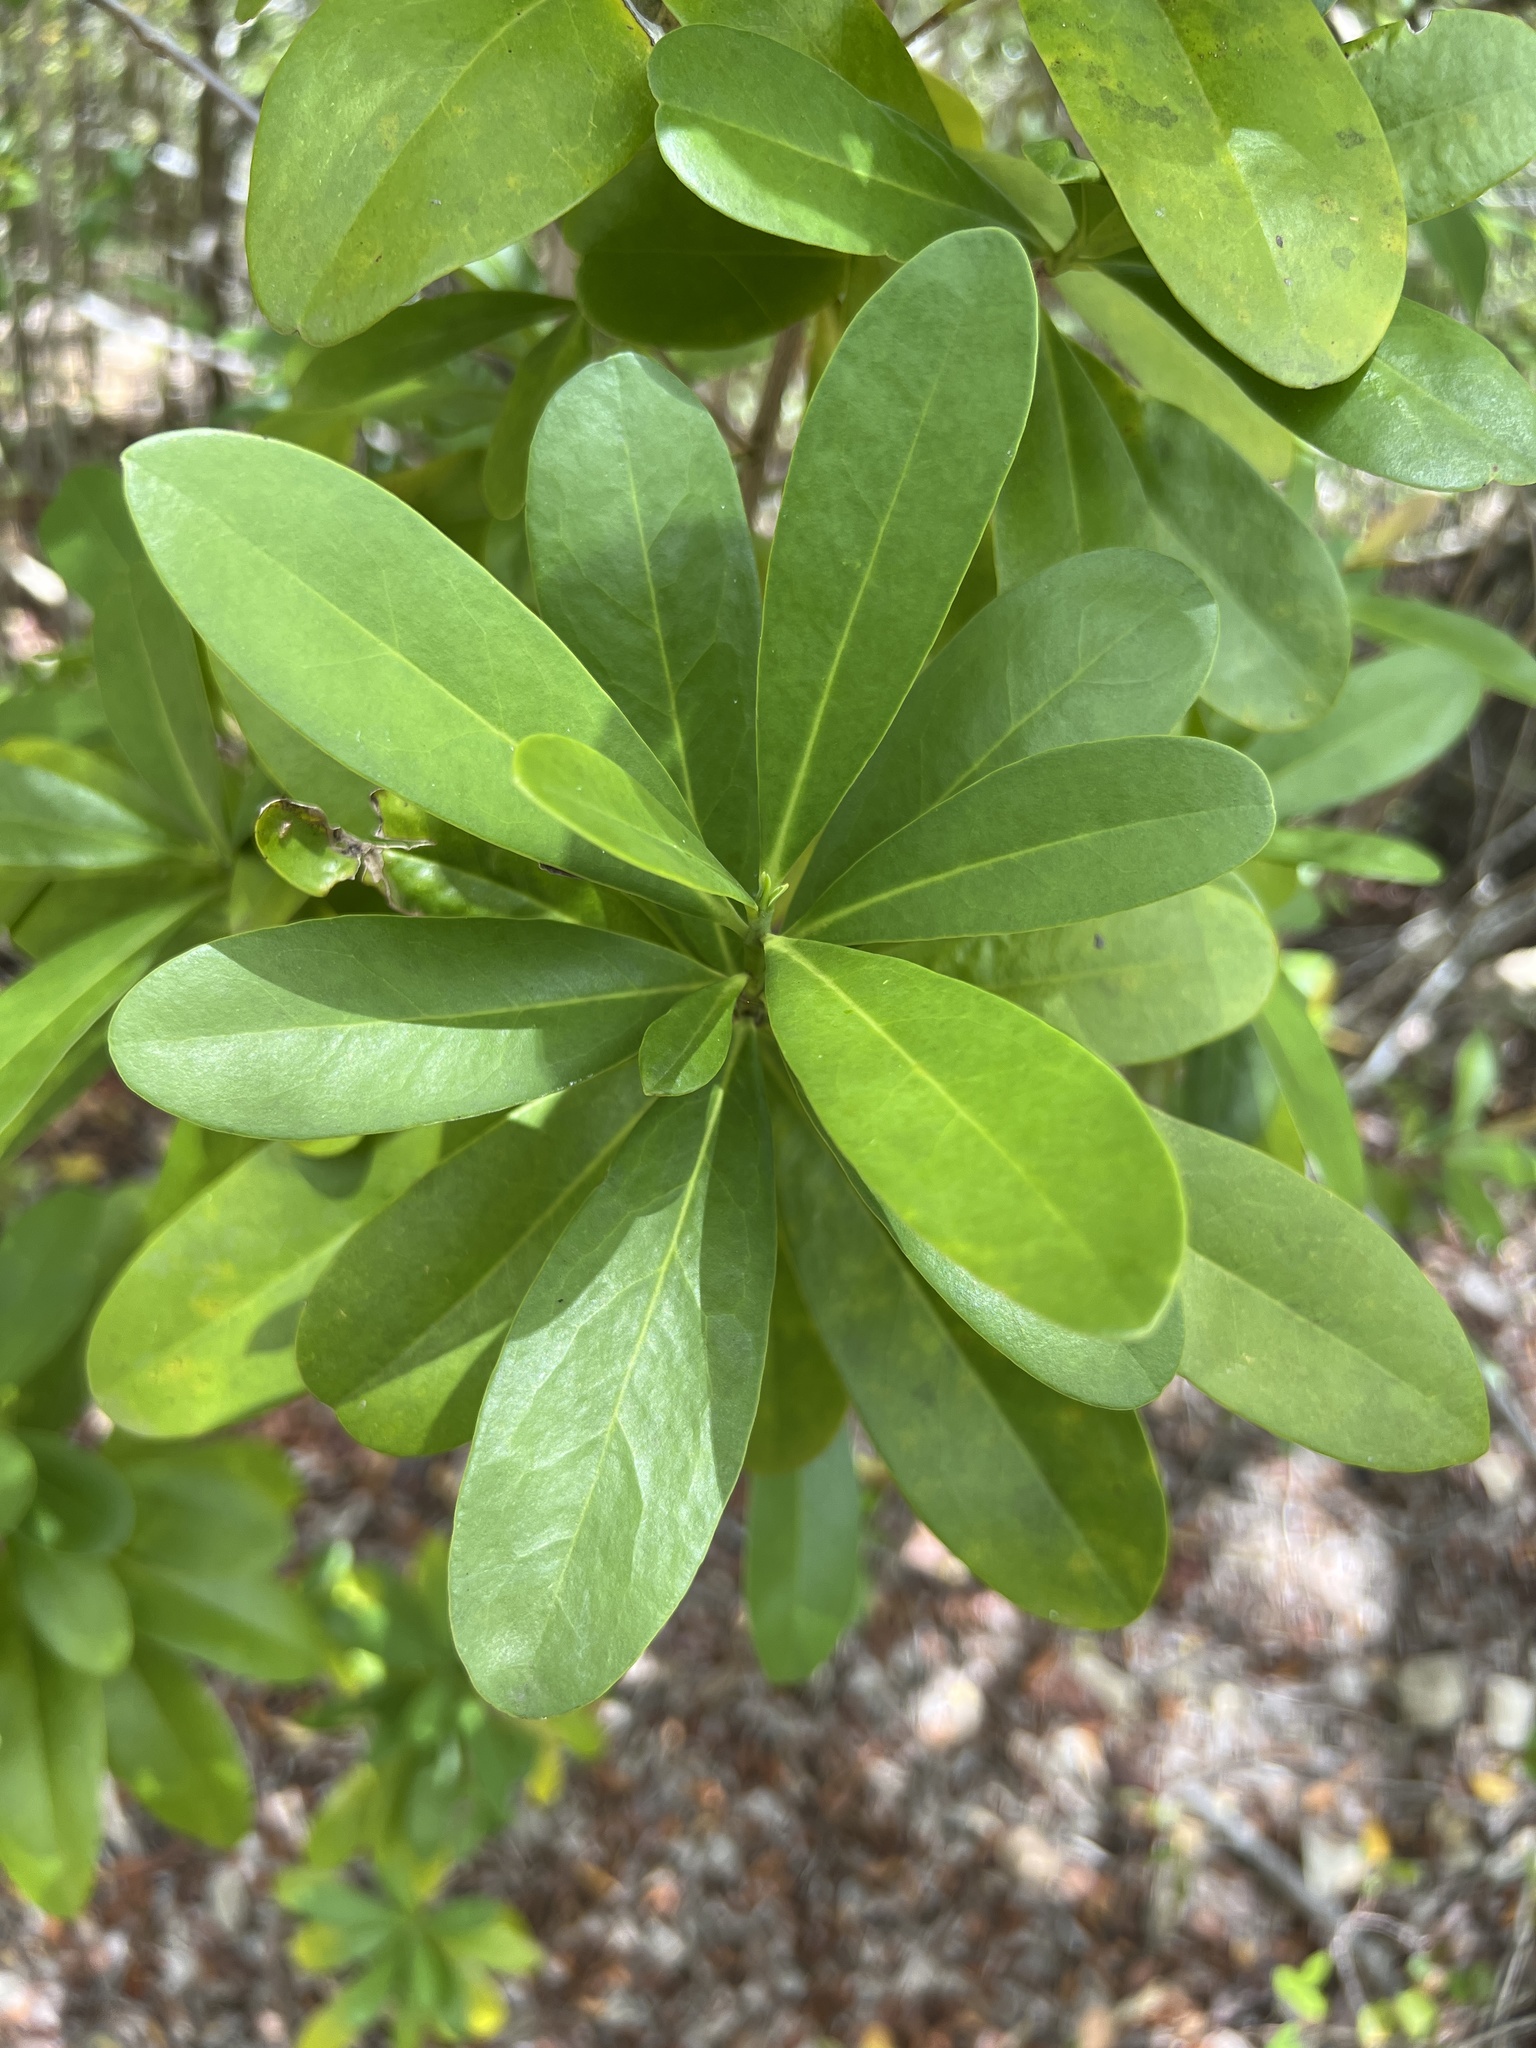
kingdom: Plantae
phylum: Tracheophyta
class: Magnoliopsida
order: Canellales
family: Canellaceae
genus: Canella
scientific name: Canella winterana
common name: Canella
